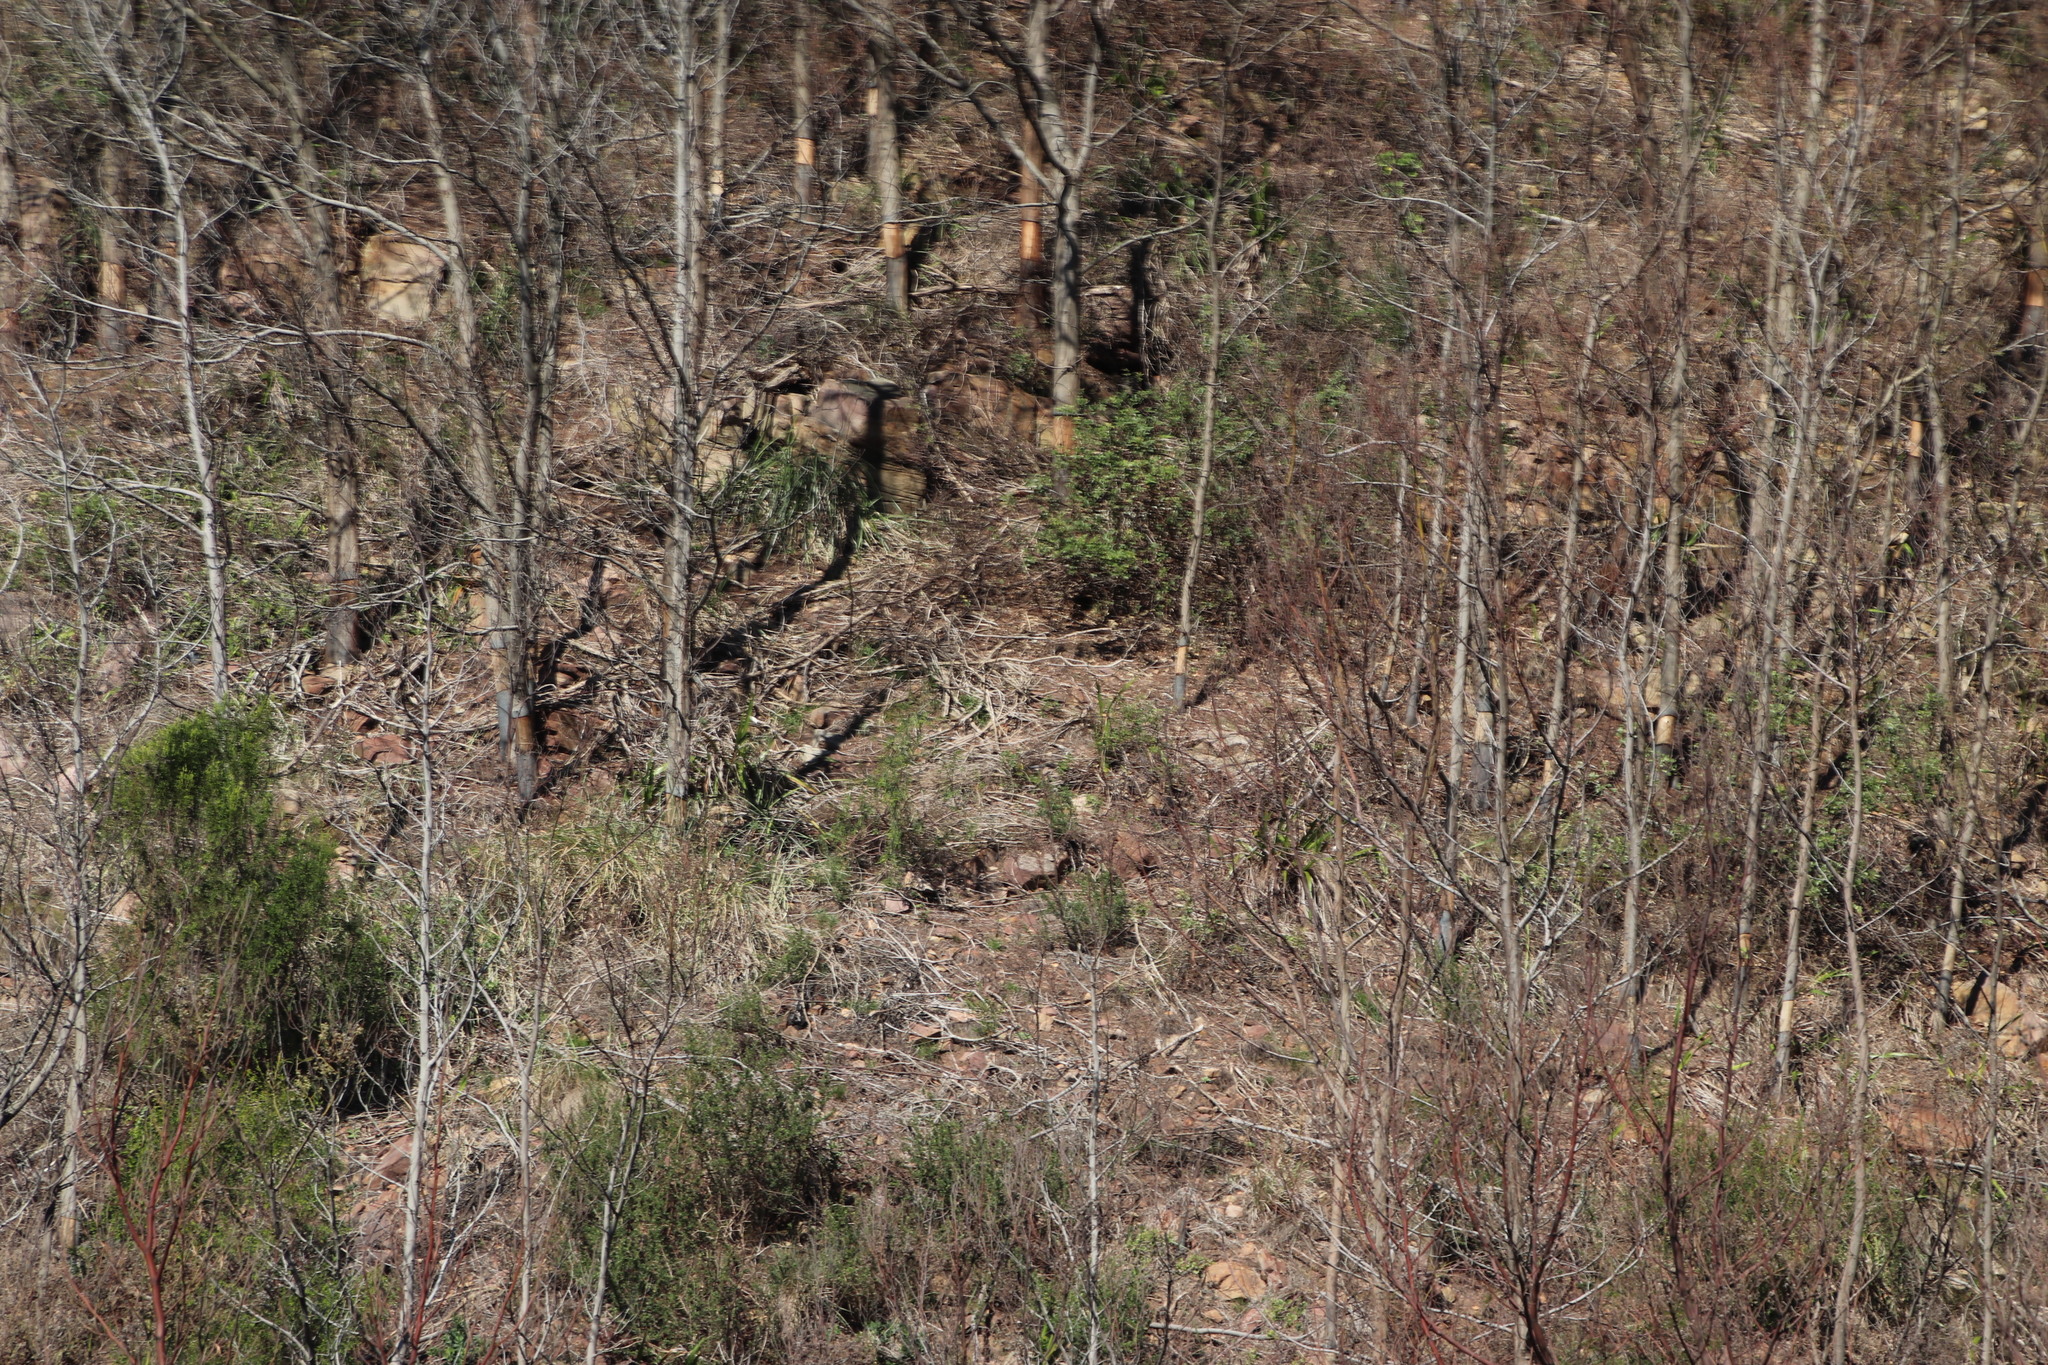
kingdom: Plantae
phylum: Tracheophyta
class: Magnoliopsida
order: Fabales
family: Fabaceae
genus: Acacia
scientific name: Acacia mearnsii
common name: Black wattle
